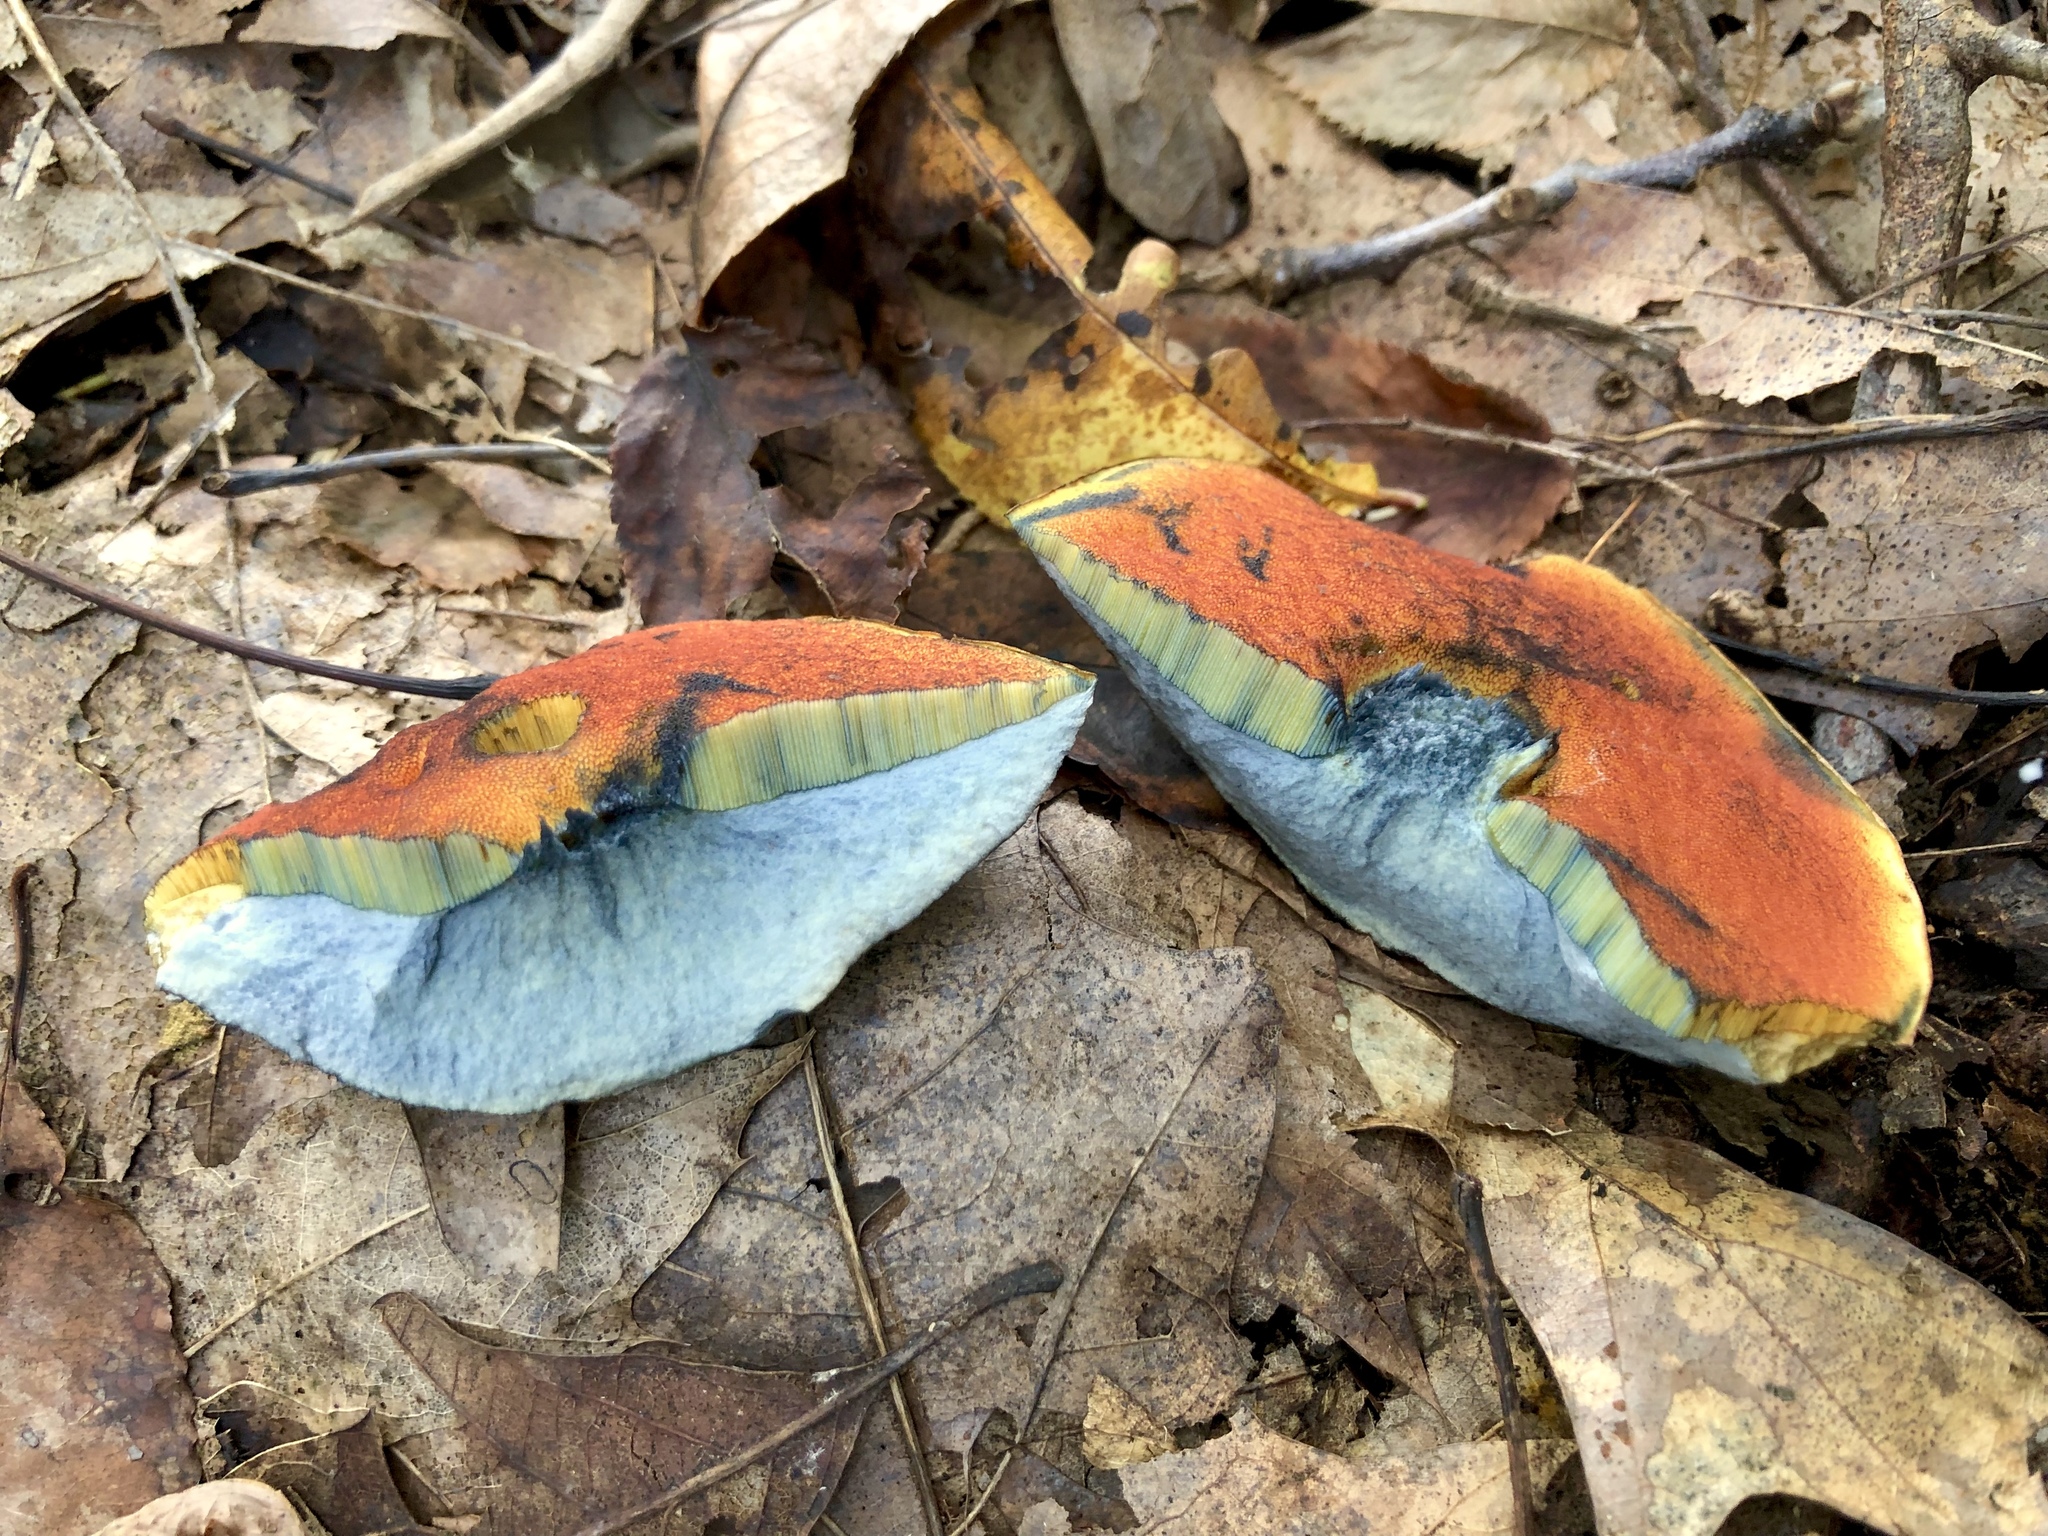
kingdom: Fungi
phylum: Basidiomycota
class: Agaricomycetes
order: Boletales
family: Boletaceae
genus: Boletus
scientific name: Boletus subvelutipes
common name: Red-mouth bolete
